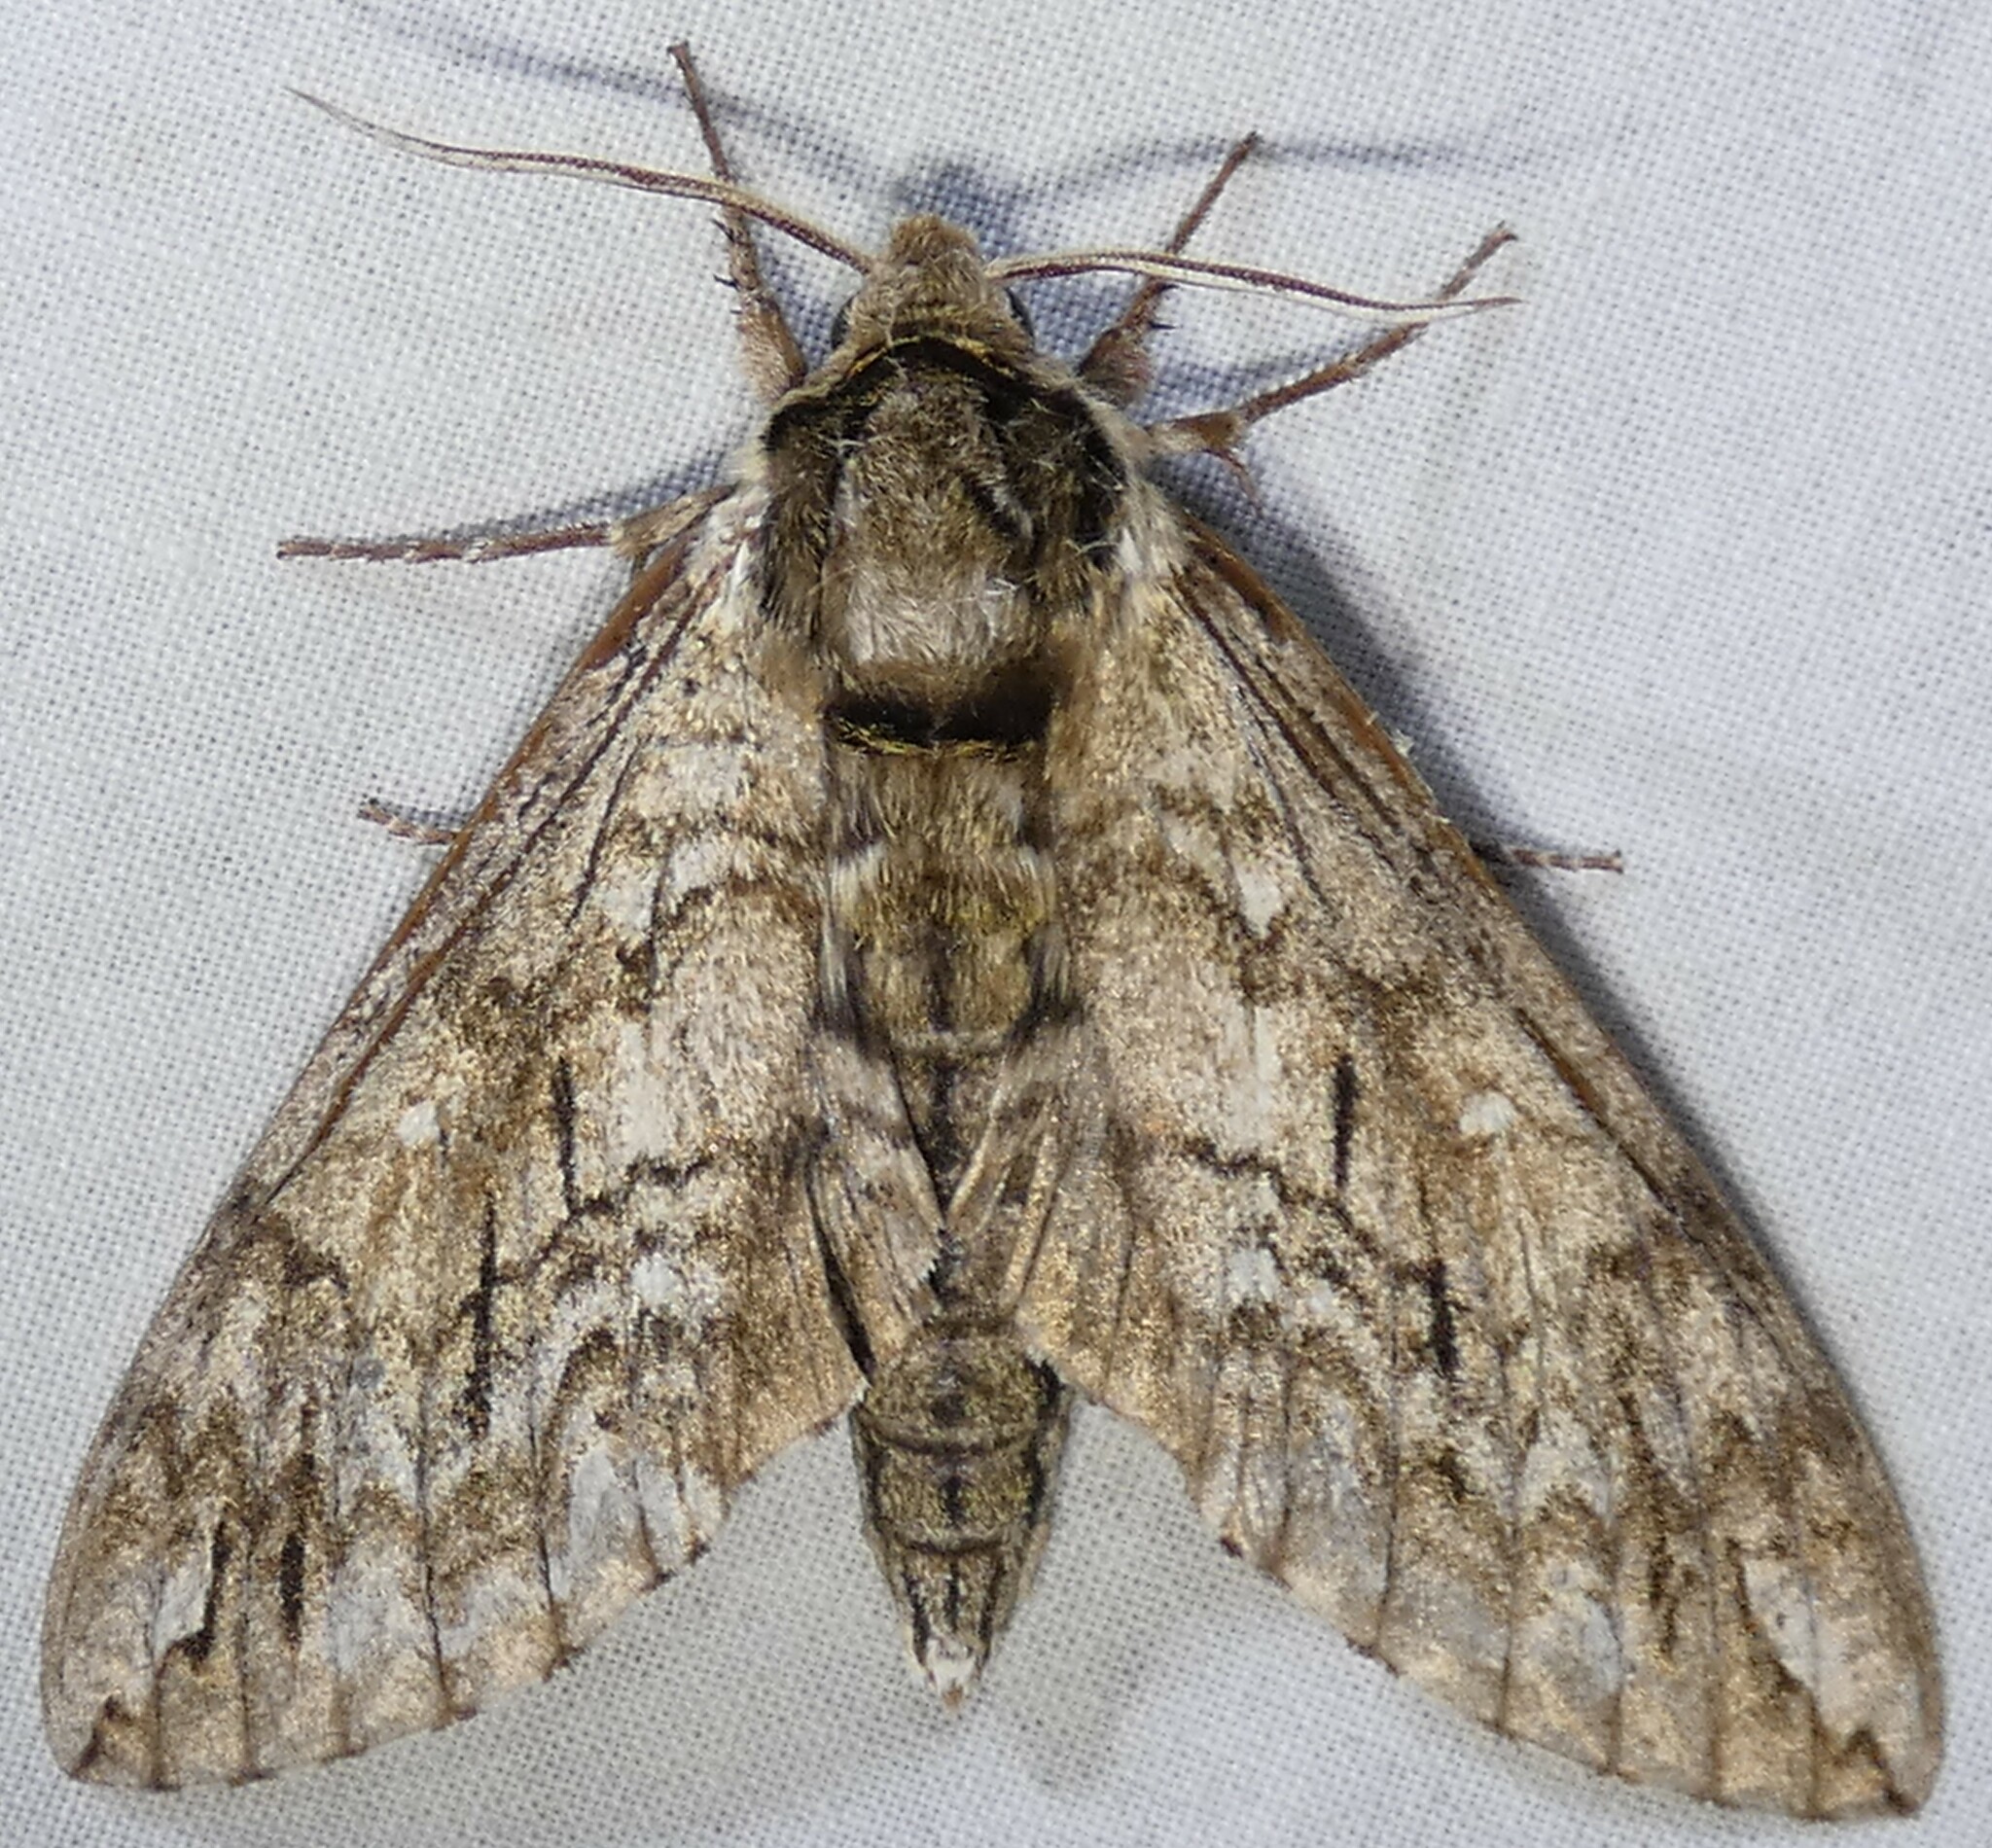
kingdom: Animalia
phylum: Arthropoda
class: Insecta
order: Lepidoptera
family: Sphingidae
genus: Ceratomia
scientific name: Ceratomia undulosa
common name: Waved sphinx
